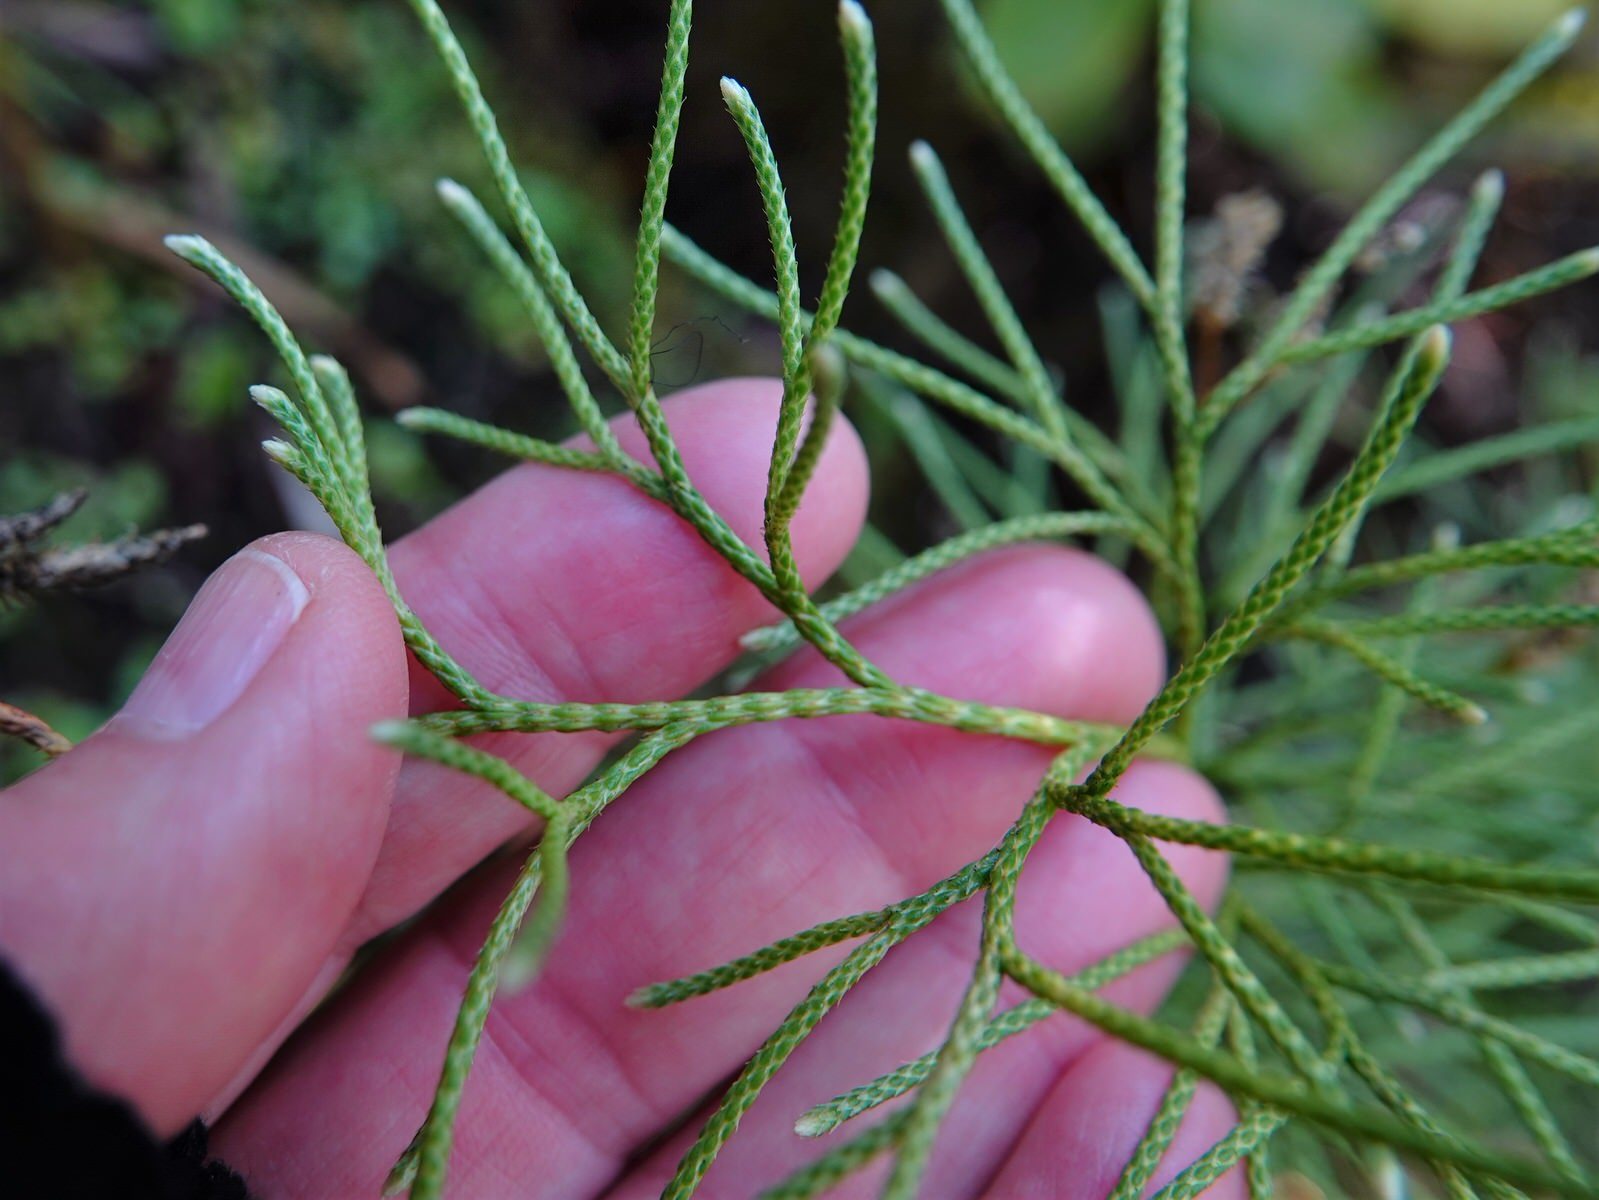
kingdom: Plantae
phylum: Tracheophyta
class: Lycopodiopsida
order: Lycopodiales
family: Lycopodiaceae
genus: Pseudolycopodium
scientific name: Pseudolycopodium densum
